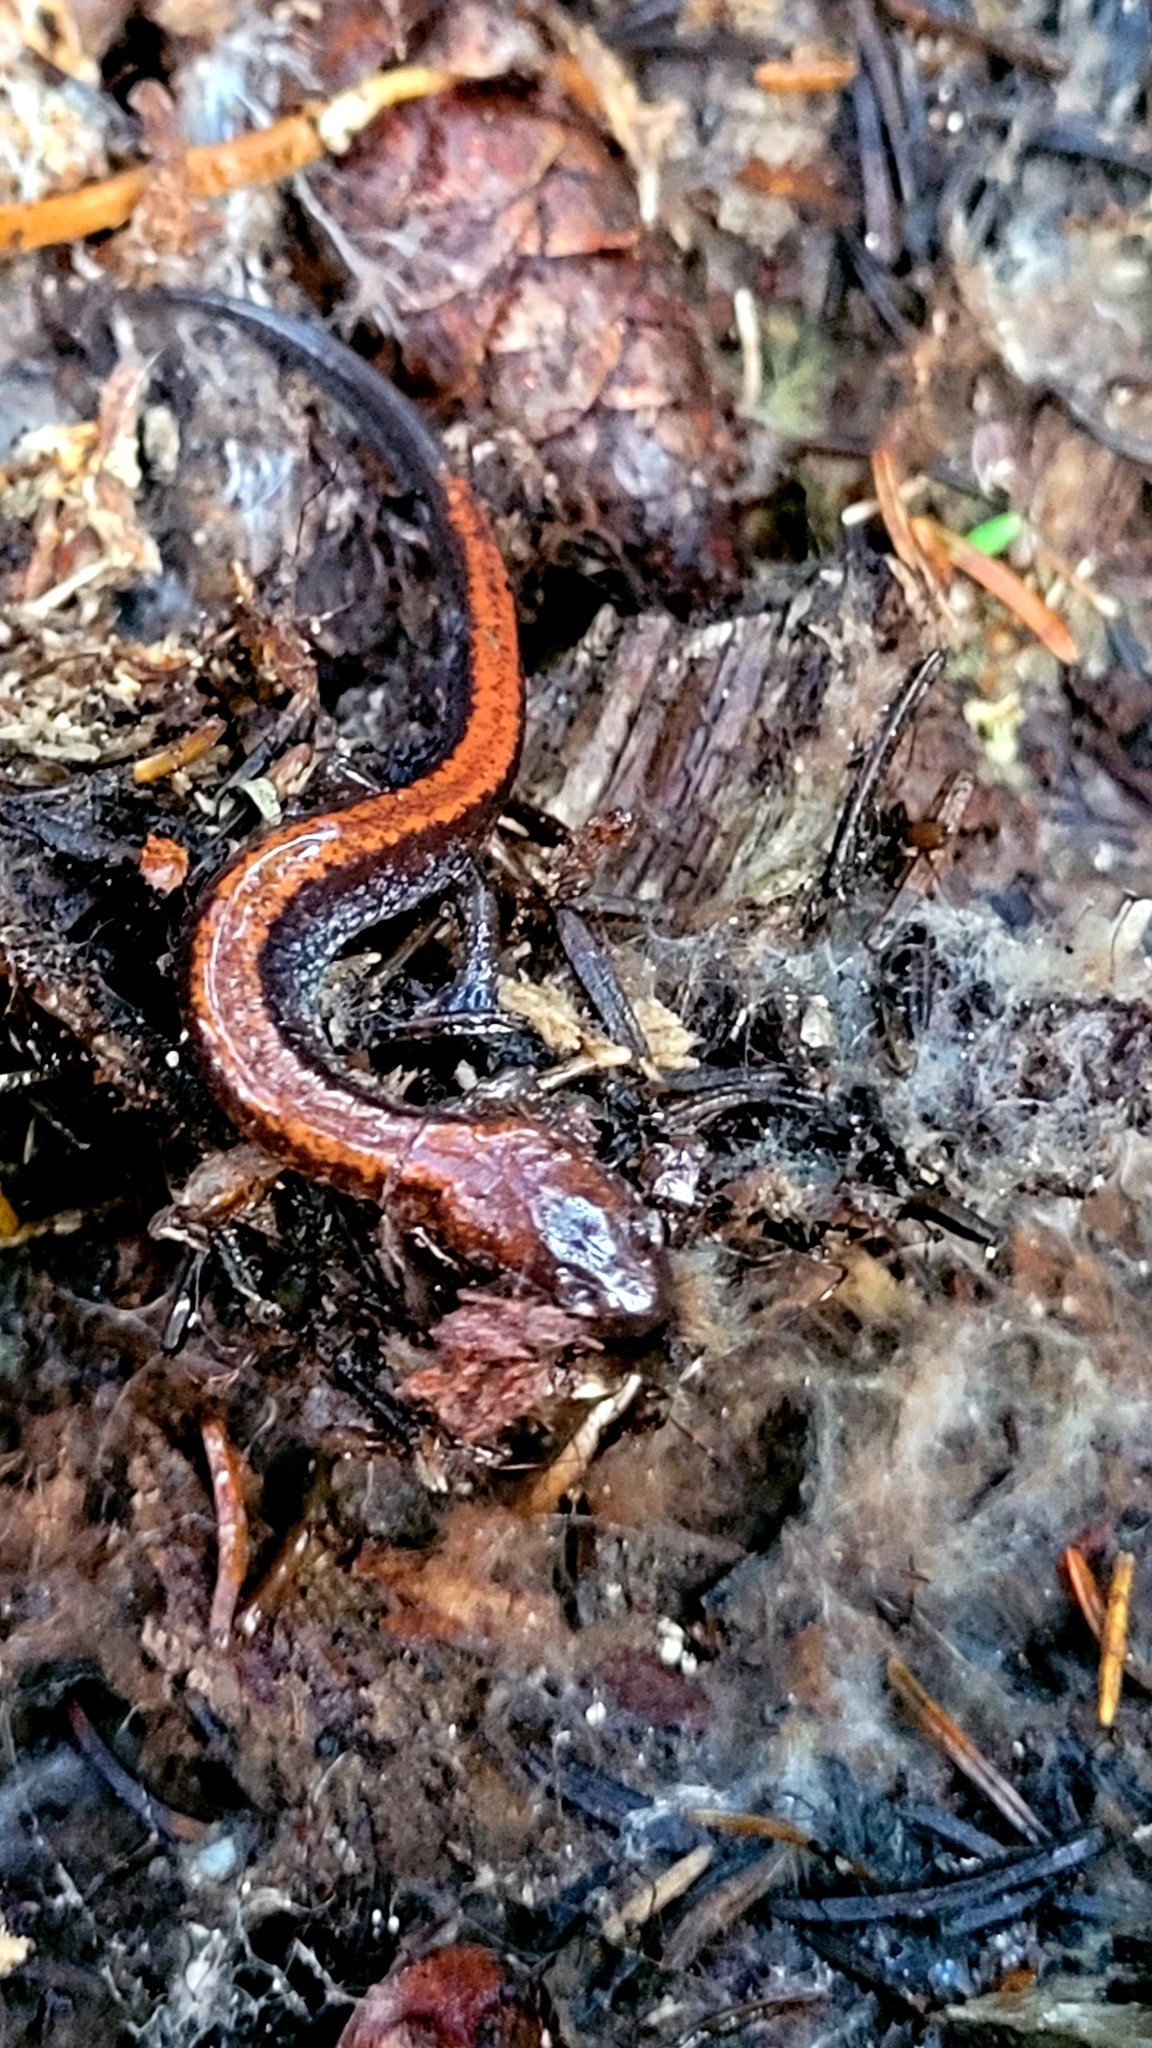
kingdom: Animalia
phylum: Chordata
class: Amphibia
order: Caudata
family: Plethodontidae
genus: Plethodon
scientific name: Plethodon cinereus
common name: Redback salamander
